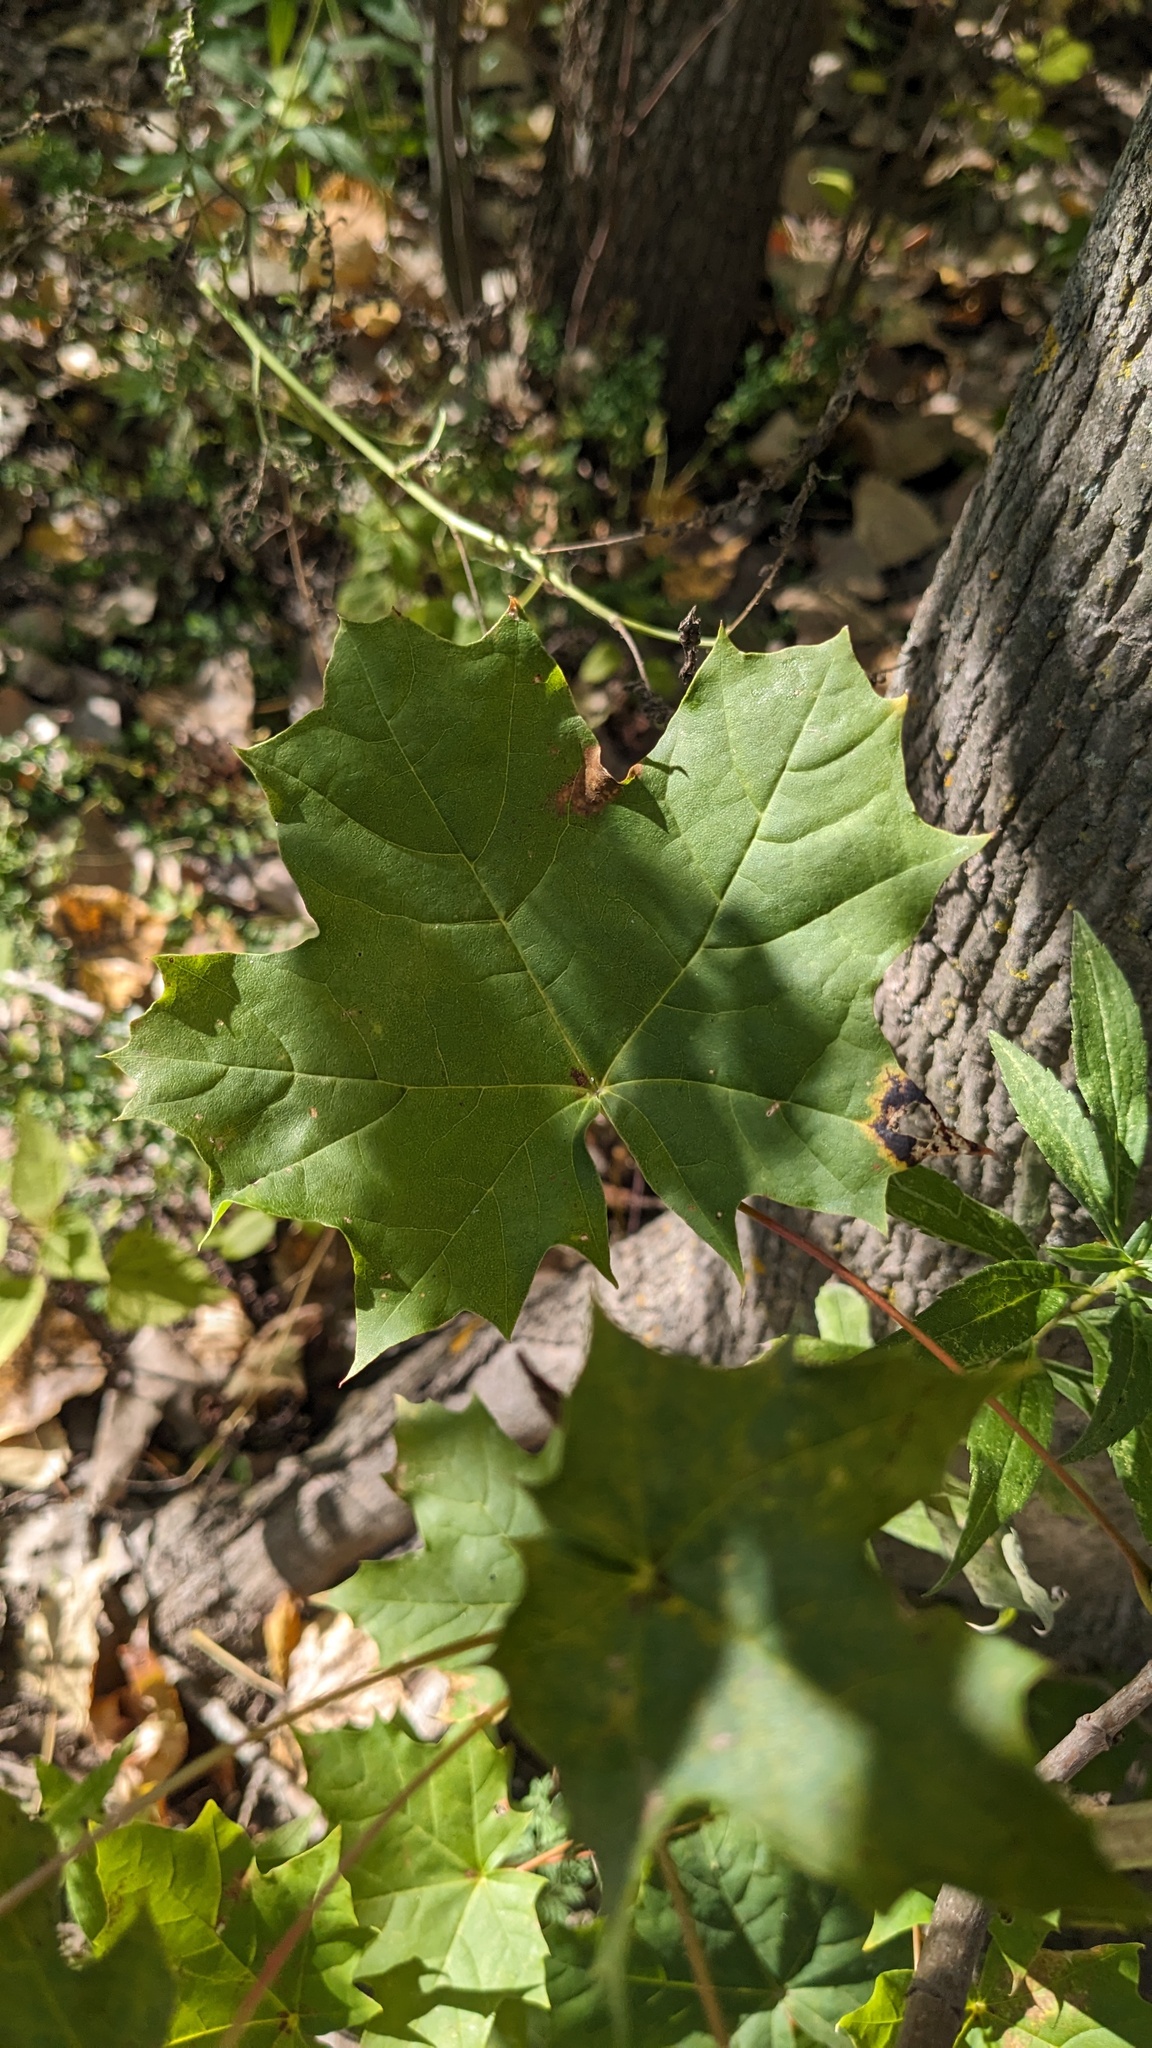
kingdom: Plantae
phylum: Tracheophyta
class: Magnoliopsida
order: Sapindales
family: Sapindaceae
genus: Acer
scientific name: Acer saccharum
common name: Sugar maple
